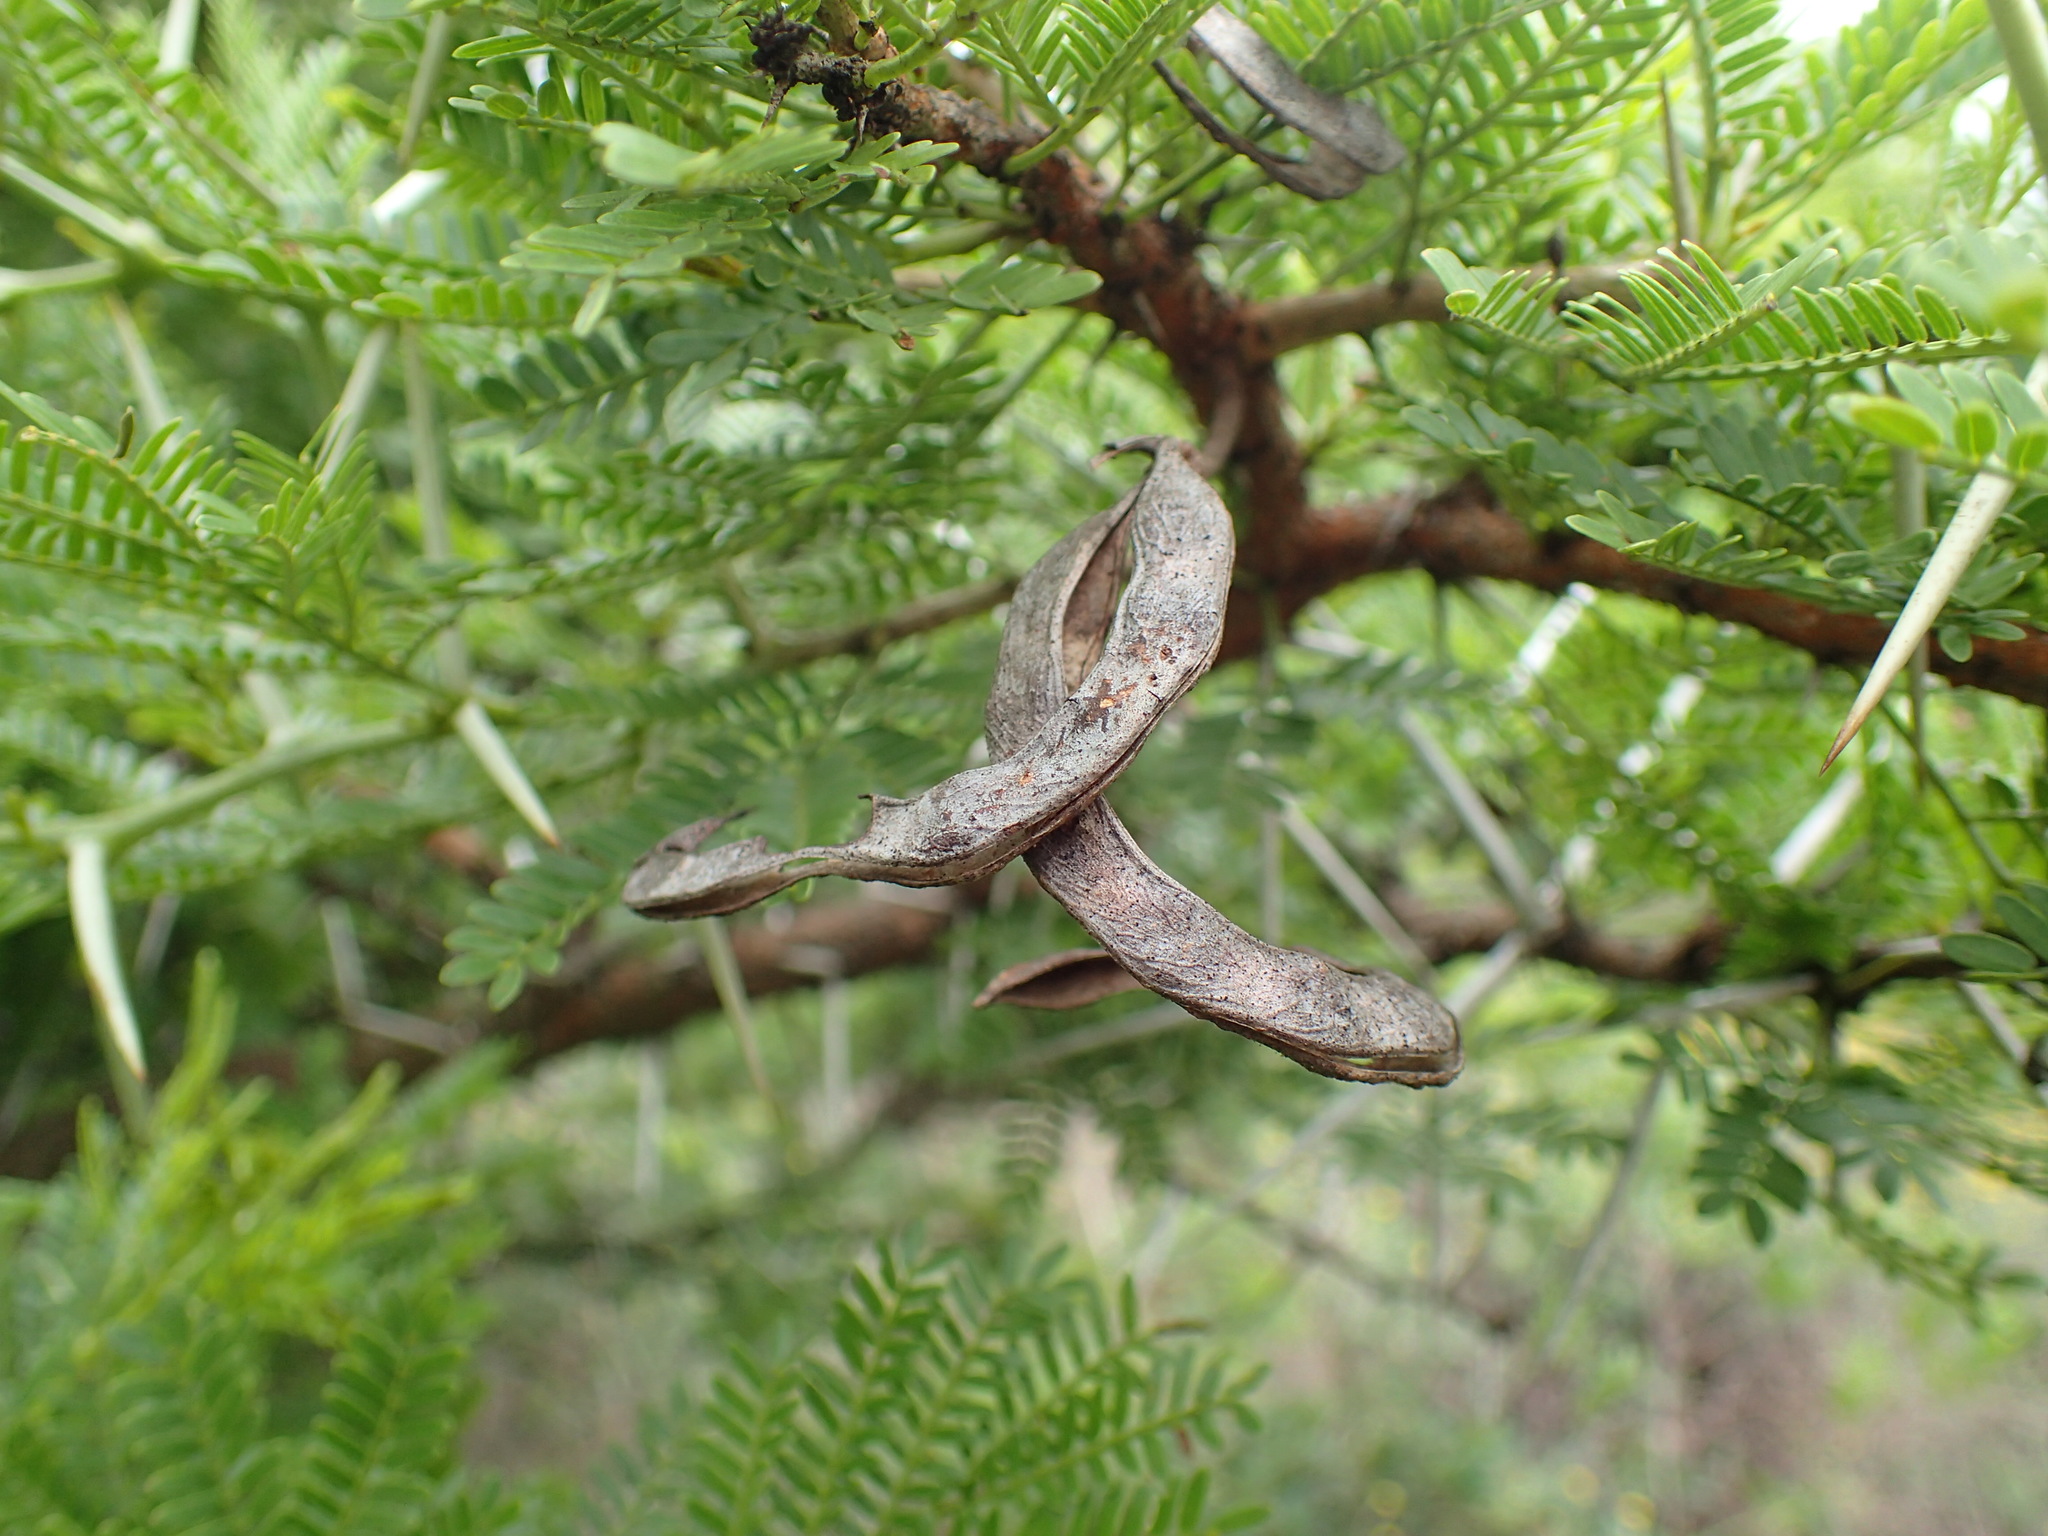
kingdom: Plantae
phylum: Tracheophyta
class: Magnoliopsida
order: Fabales
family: Fabaceae
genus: Vachellia
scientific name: Vachellia karroo
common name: Sweet thorn
